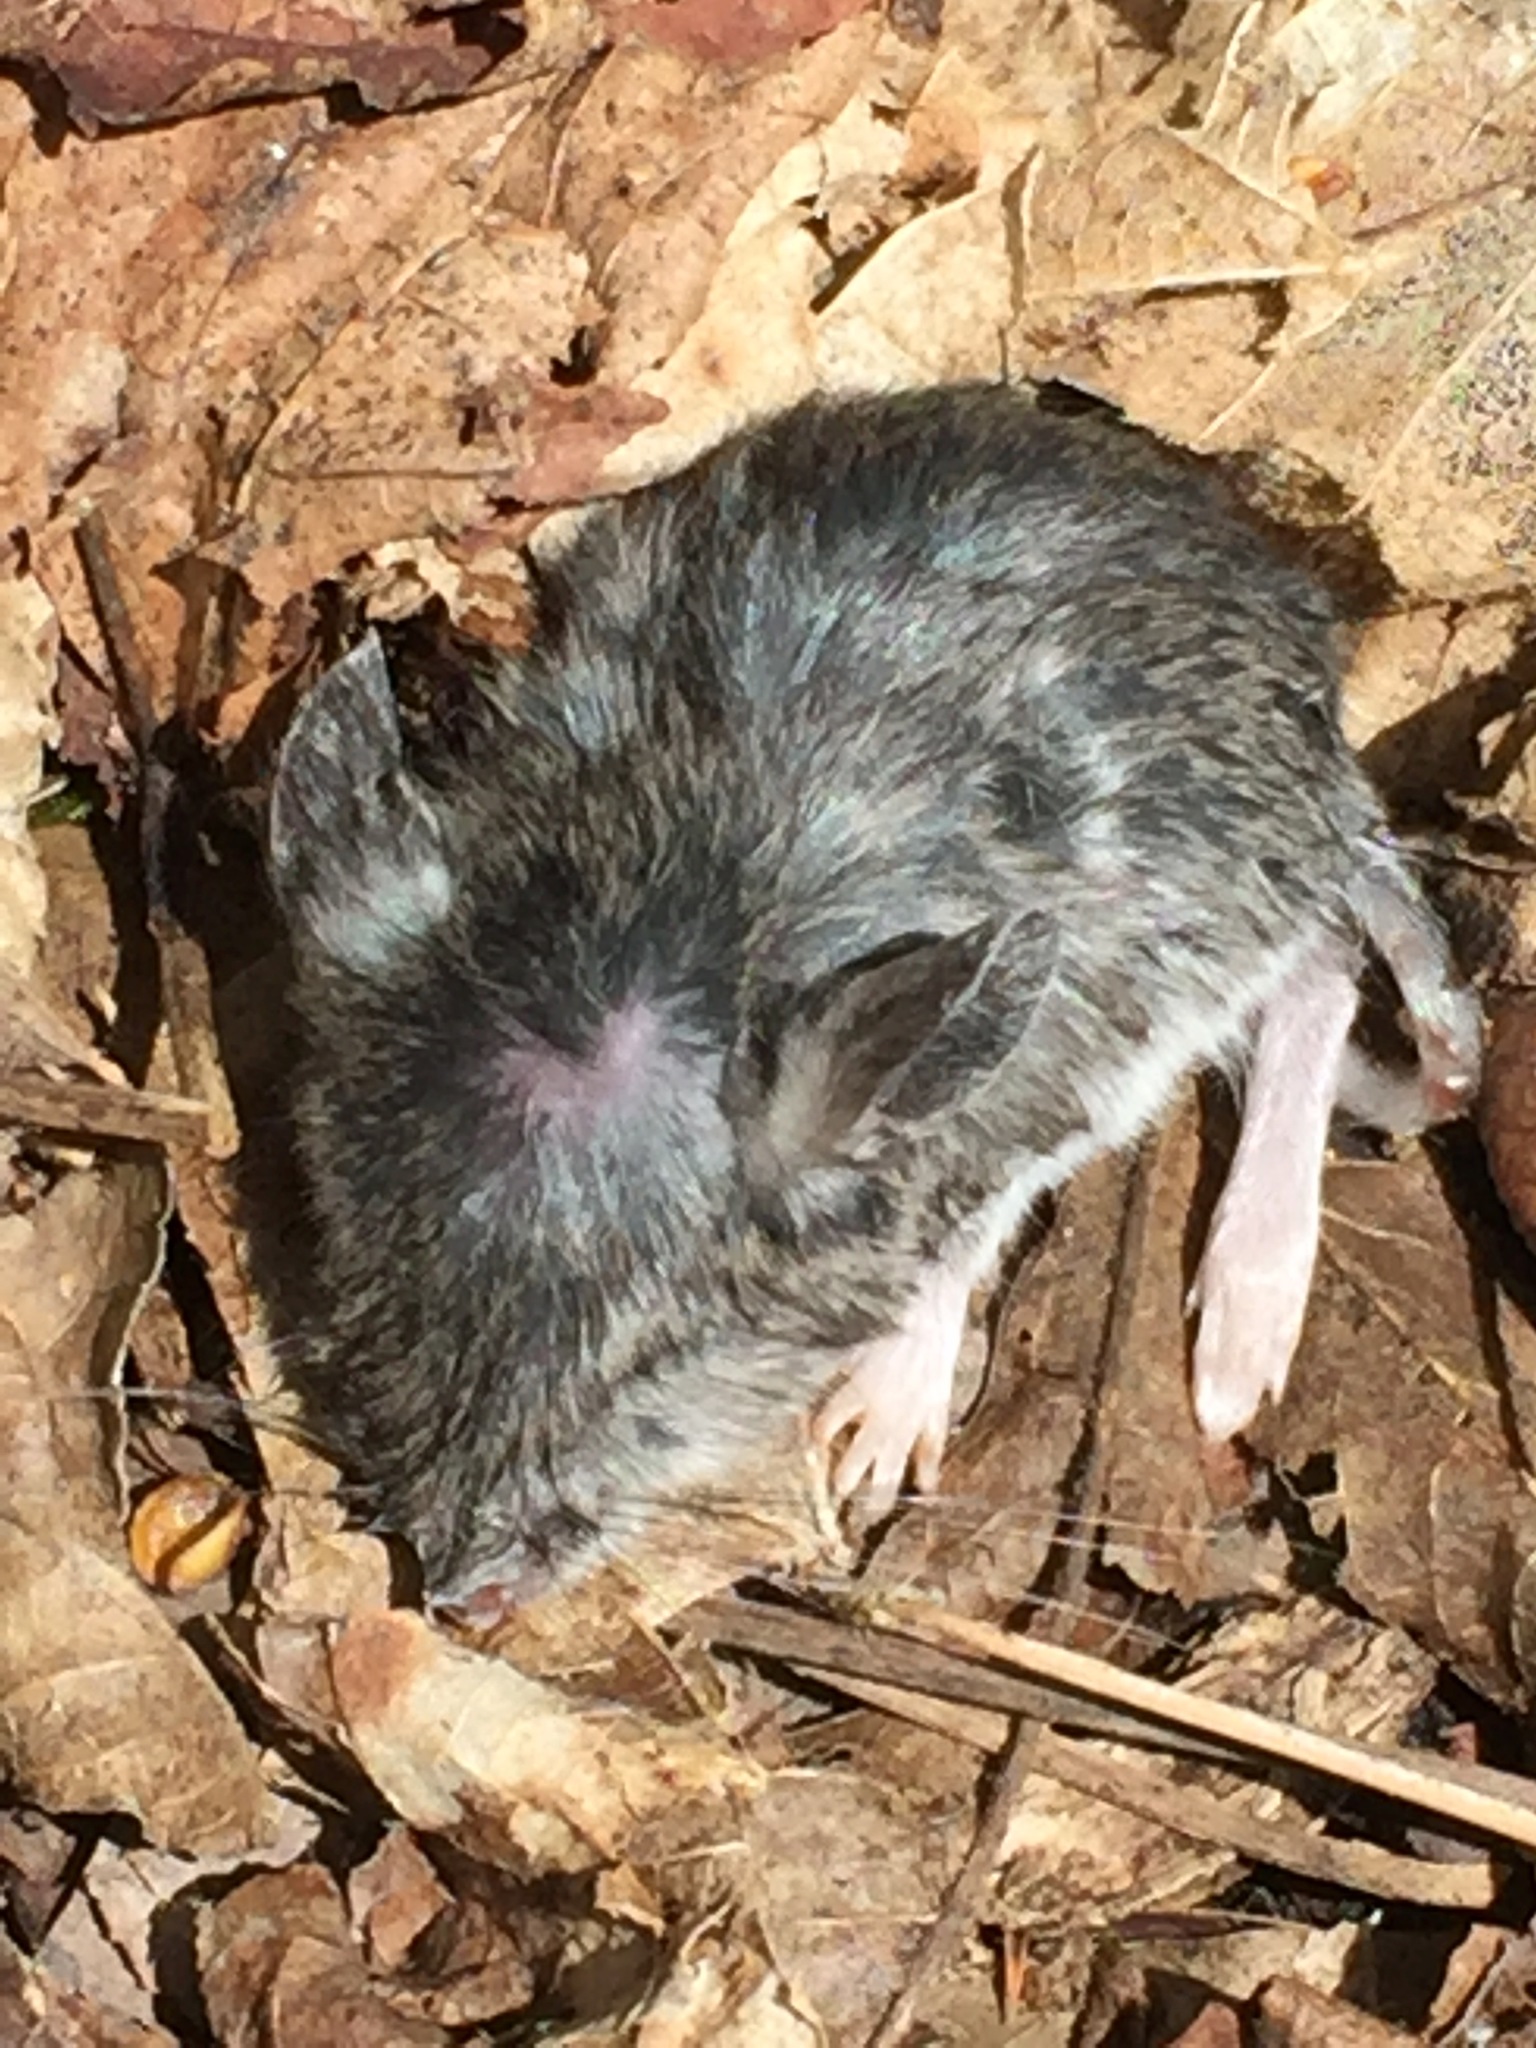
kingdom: Animalia
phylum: Chordata
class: Mammalia
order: Rodentia
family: Cricetidae
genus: Peromyscus
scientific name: Peromyscus
